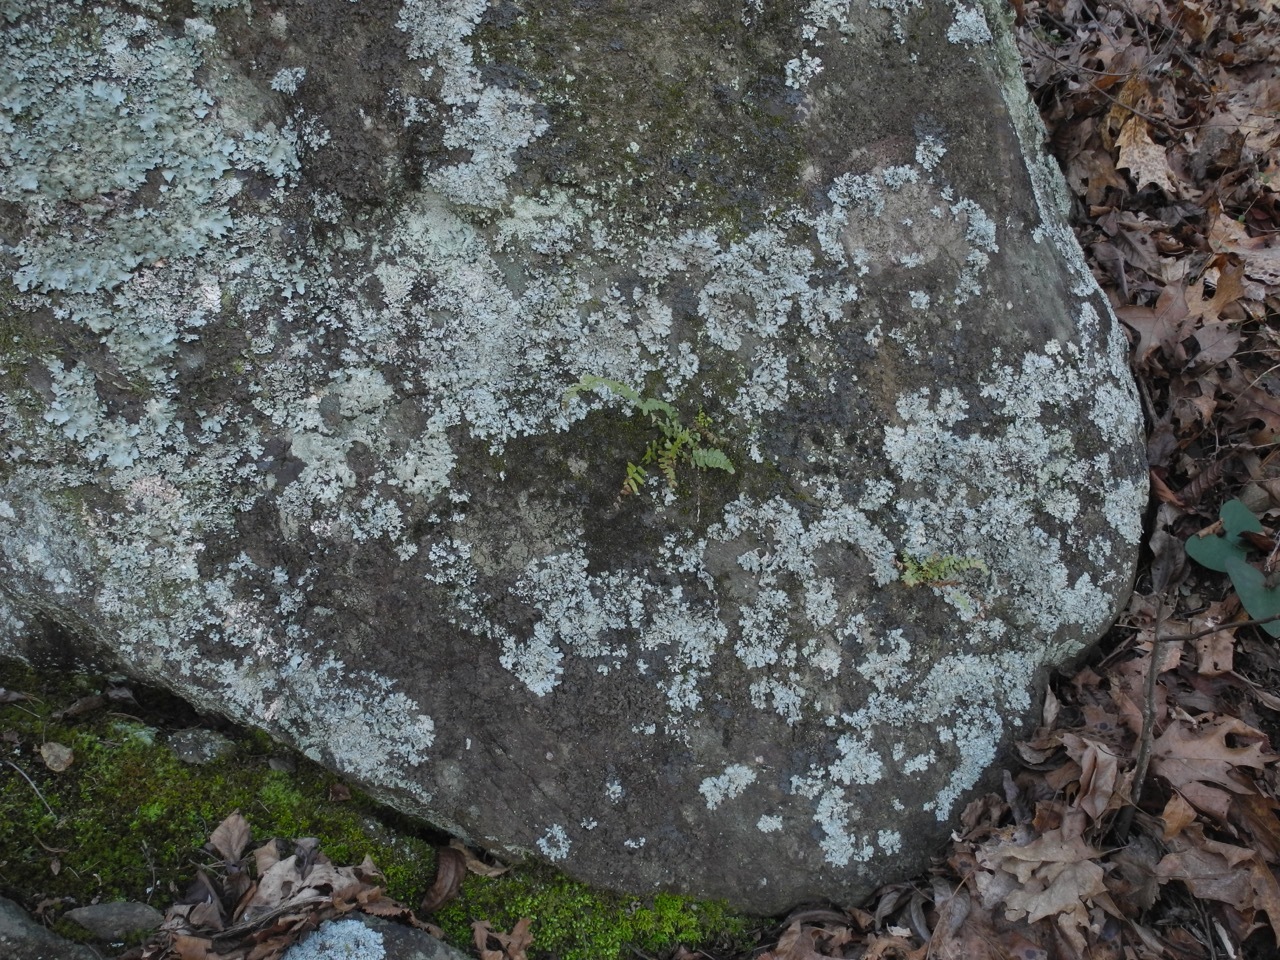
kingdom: Plantae
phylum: Tracheophyta
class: Polypodiopsida
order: Polypodiales
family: Aspleniaceae
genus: Asplenium
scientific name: Asplenium platyneuron
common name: Ebony spleenwort
